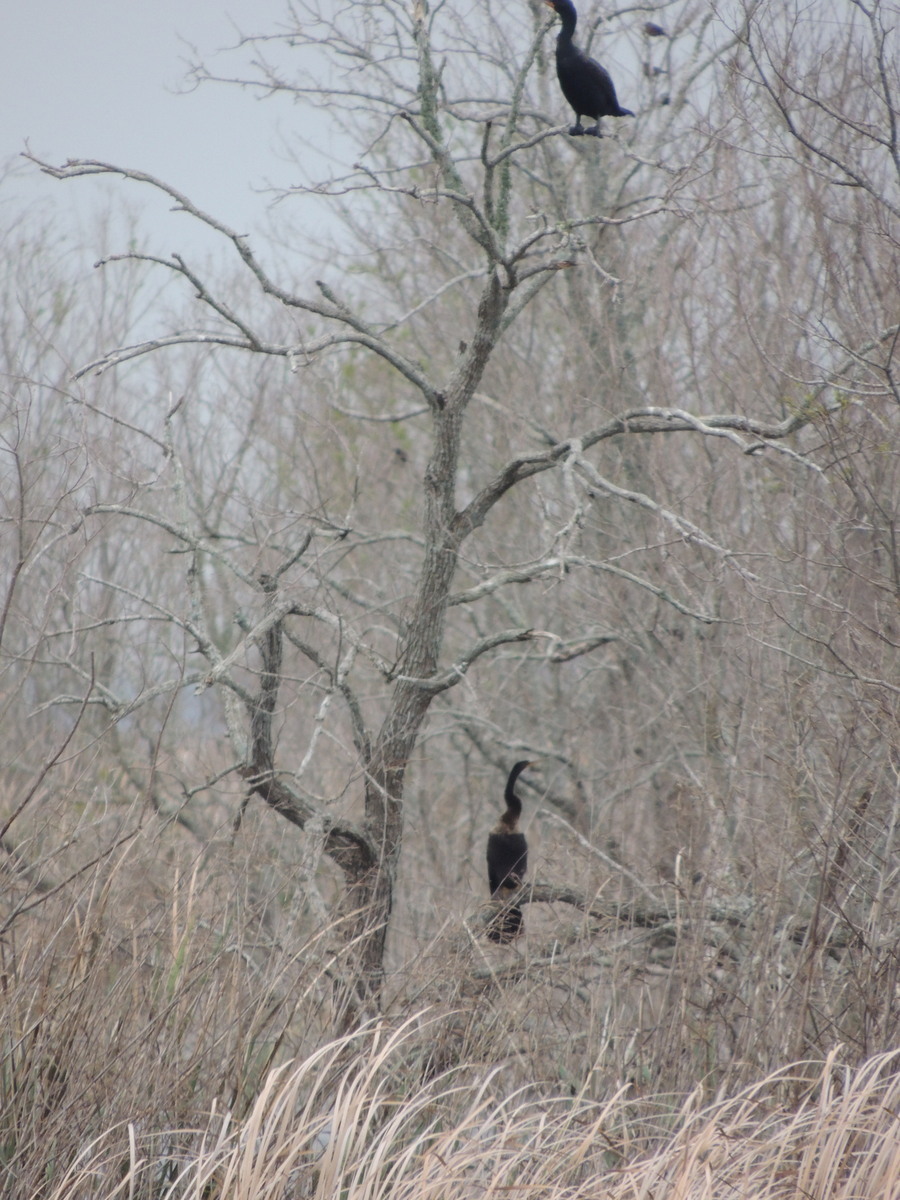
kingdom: Animalia
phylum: Chordata
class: Aves
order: Suliformes
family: Phalacrocoracidae
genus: Phalacrocorax
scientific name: Phalacrocorax auritus
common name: Double-crested cormorant
